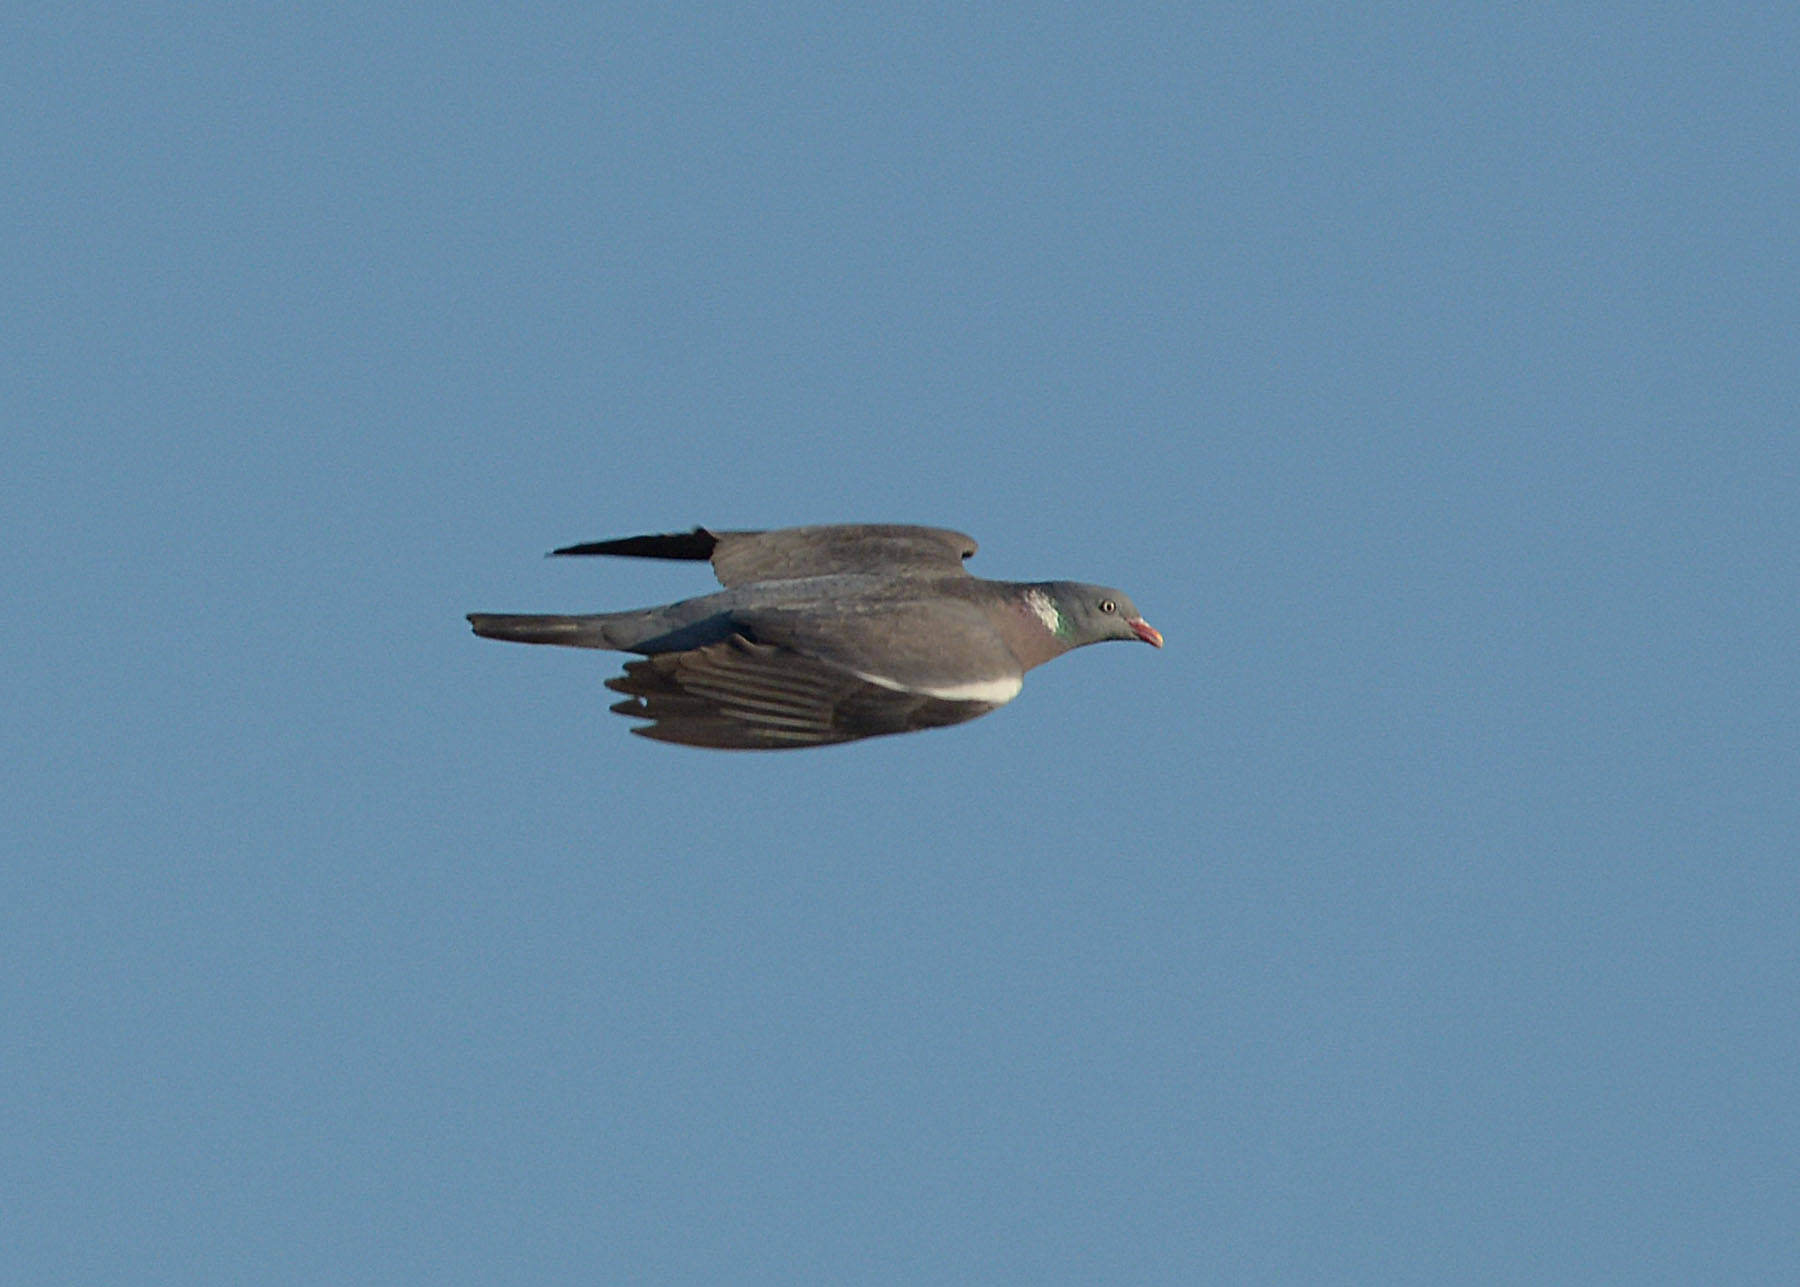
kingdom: Animalia
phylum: Chordata
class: Aves
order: Columbiformes
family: Columbidae
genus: Columba
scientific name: Columba palumbus
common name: Common wood pigeon
